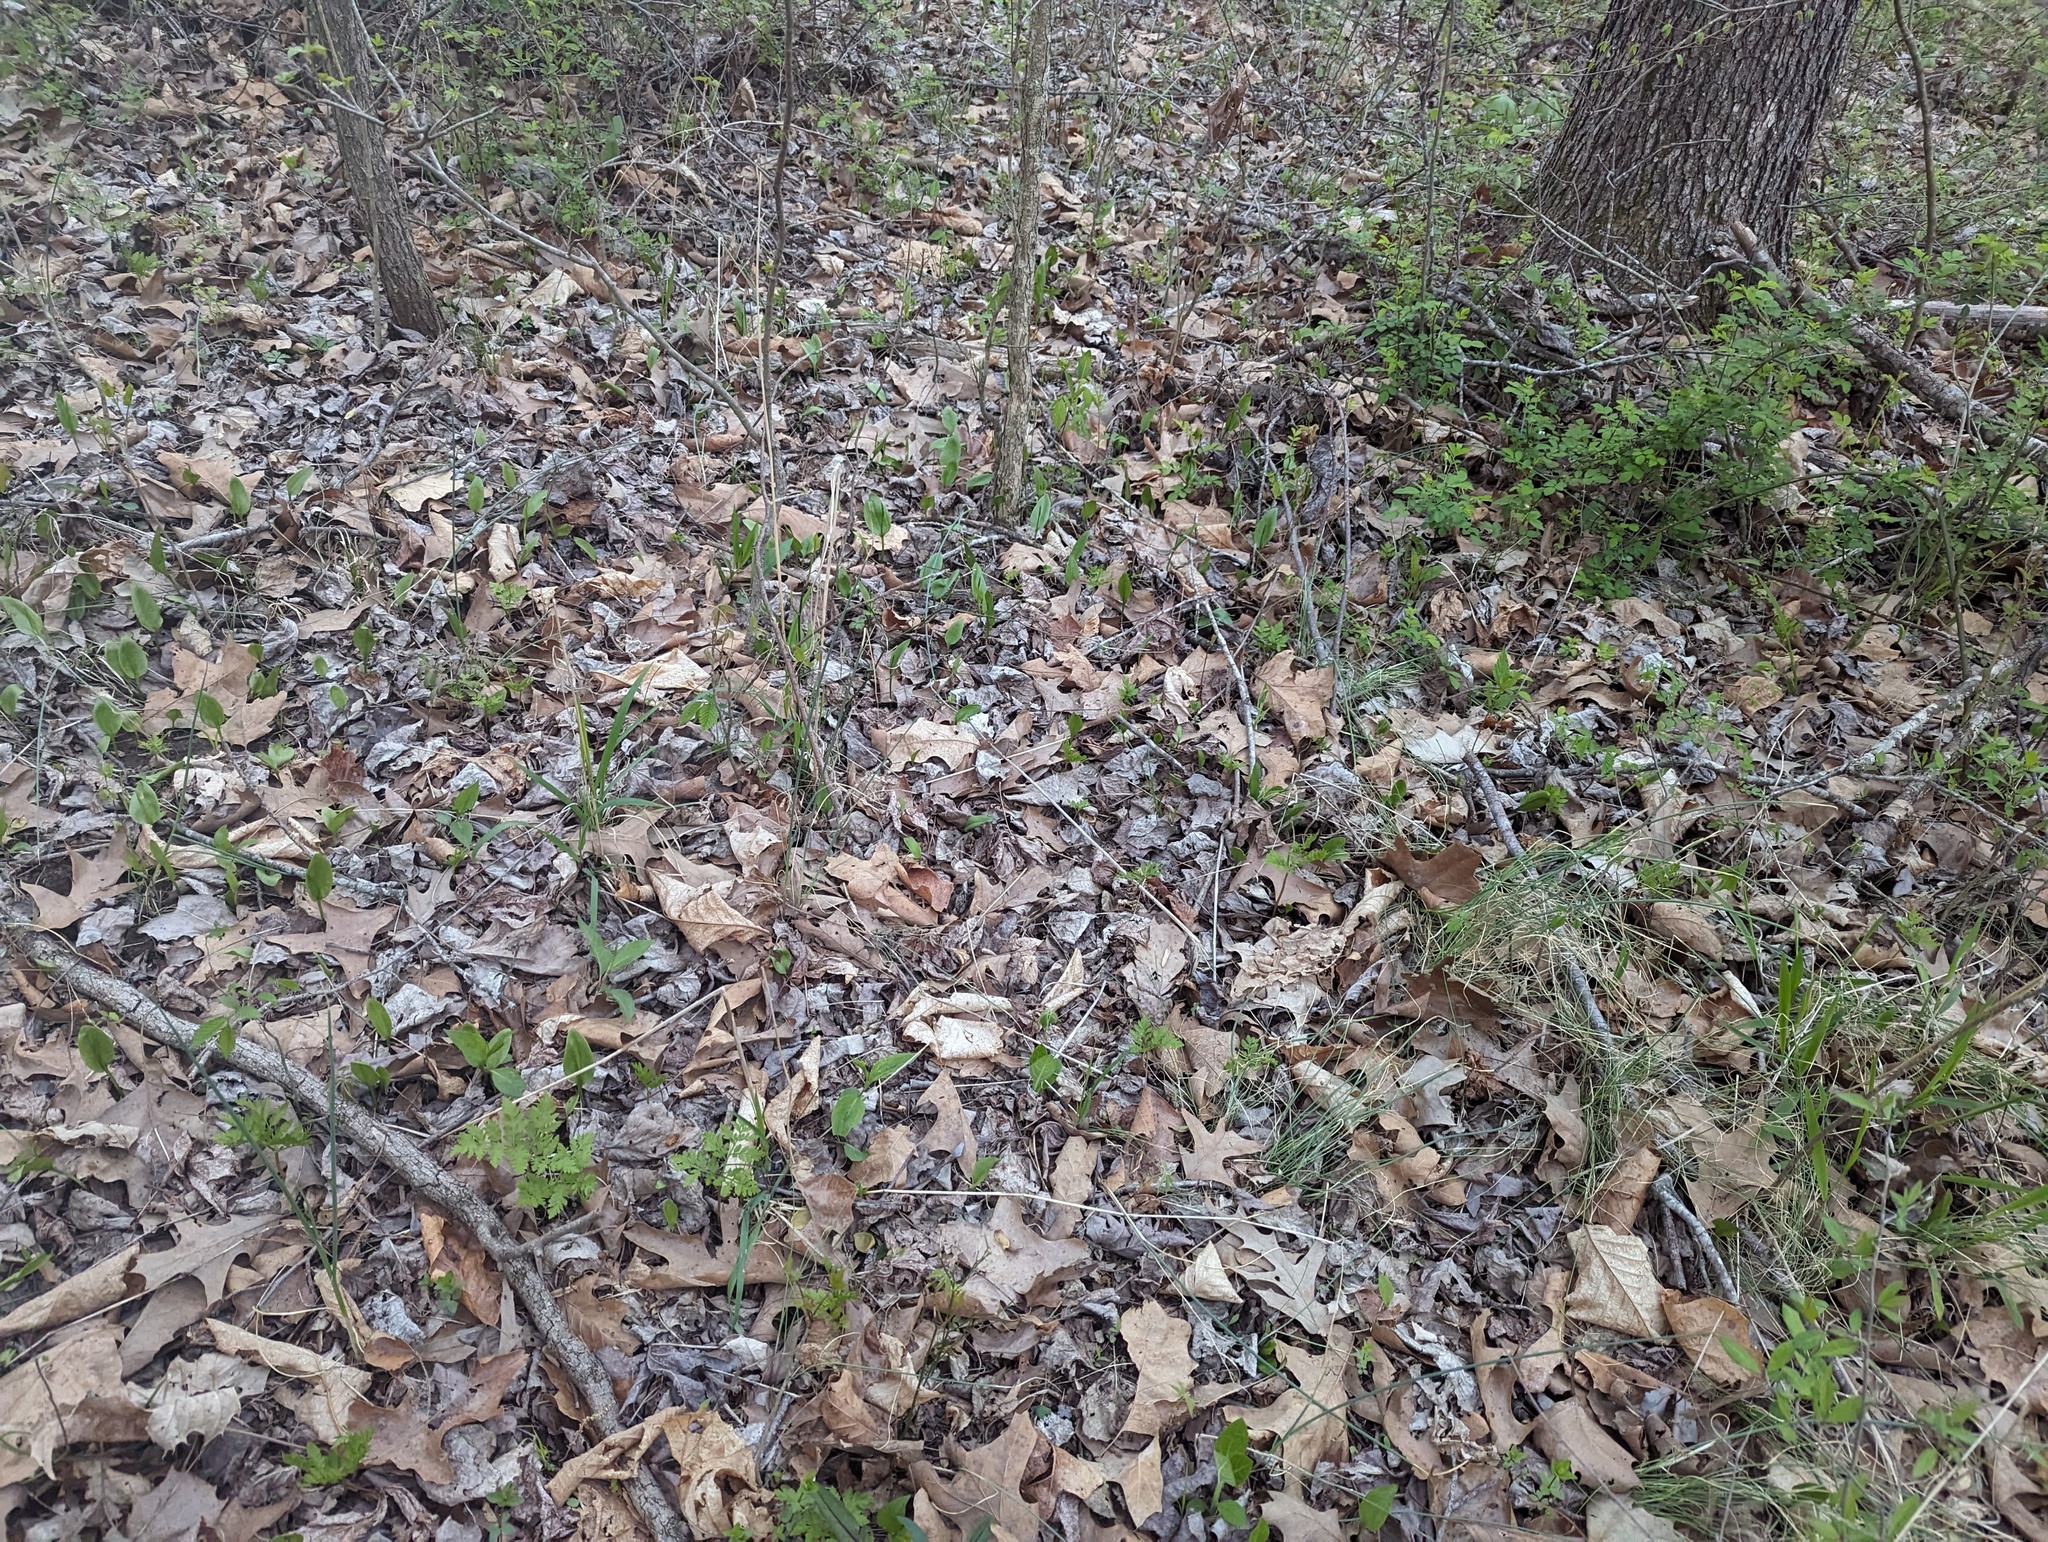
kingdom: Plantae
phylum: Tracheophyta
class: Polypodiopsida
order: Ophioglossales
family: Ophioglossaceae
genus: Ophioglossum
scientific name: Ophioglossum vulgatum
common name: Adder's-tongue
